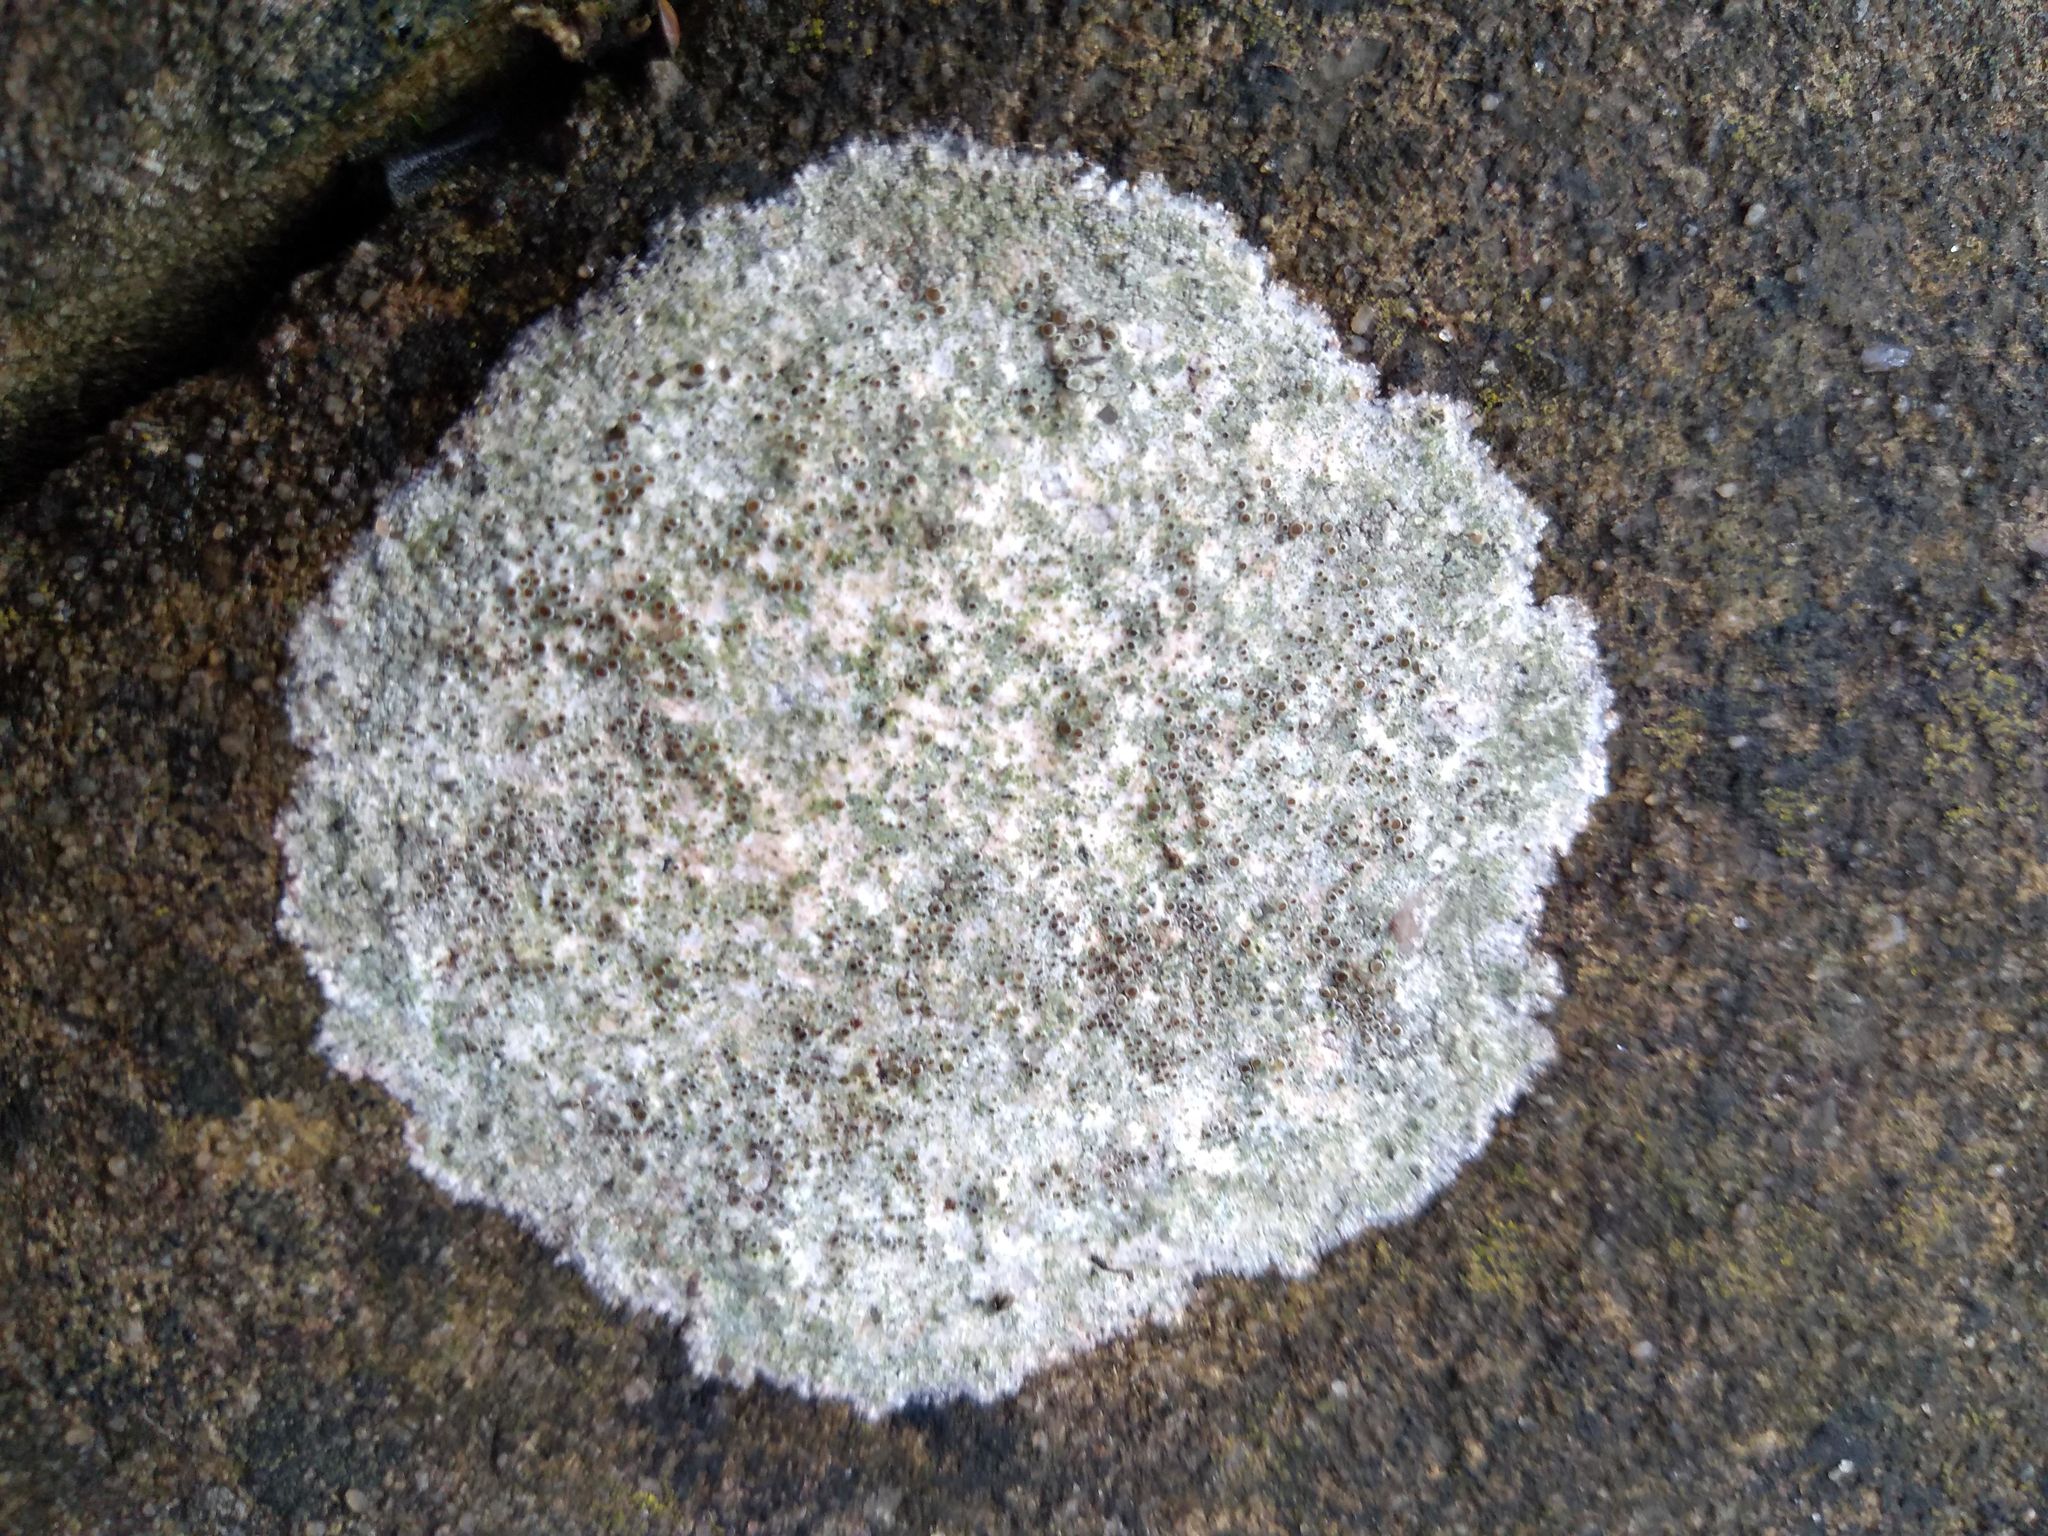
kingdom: Fungi
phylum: Ascomycota
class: Lecanoromycetes
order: Lecanorales
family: Lecanoraceae
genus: Lecanora
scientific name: Lecanora campestris
